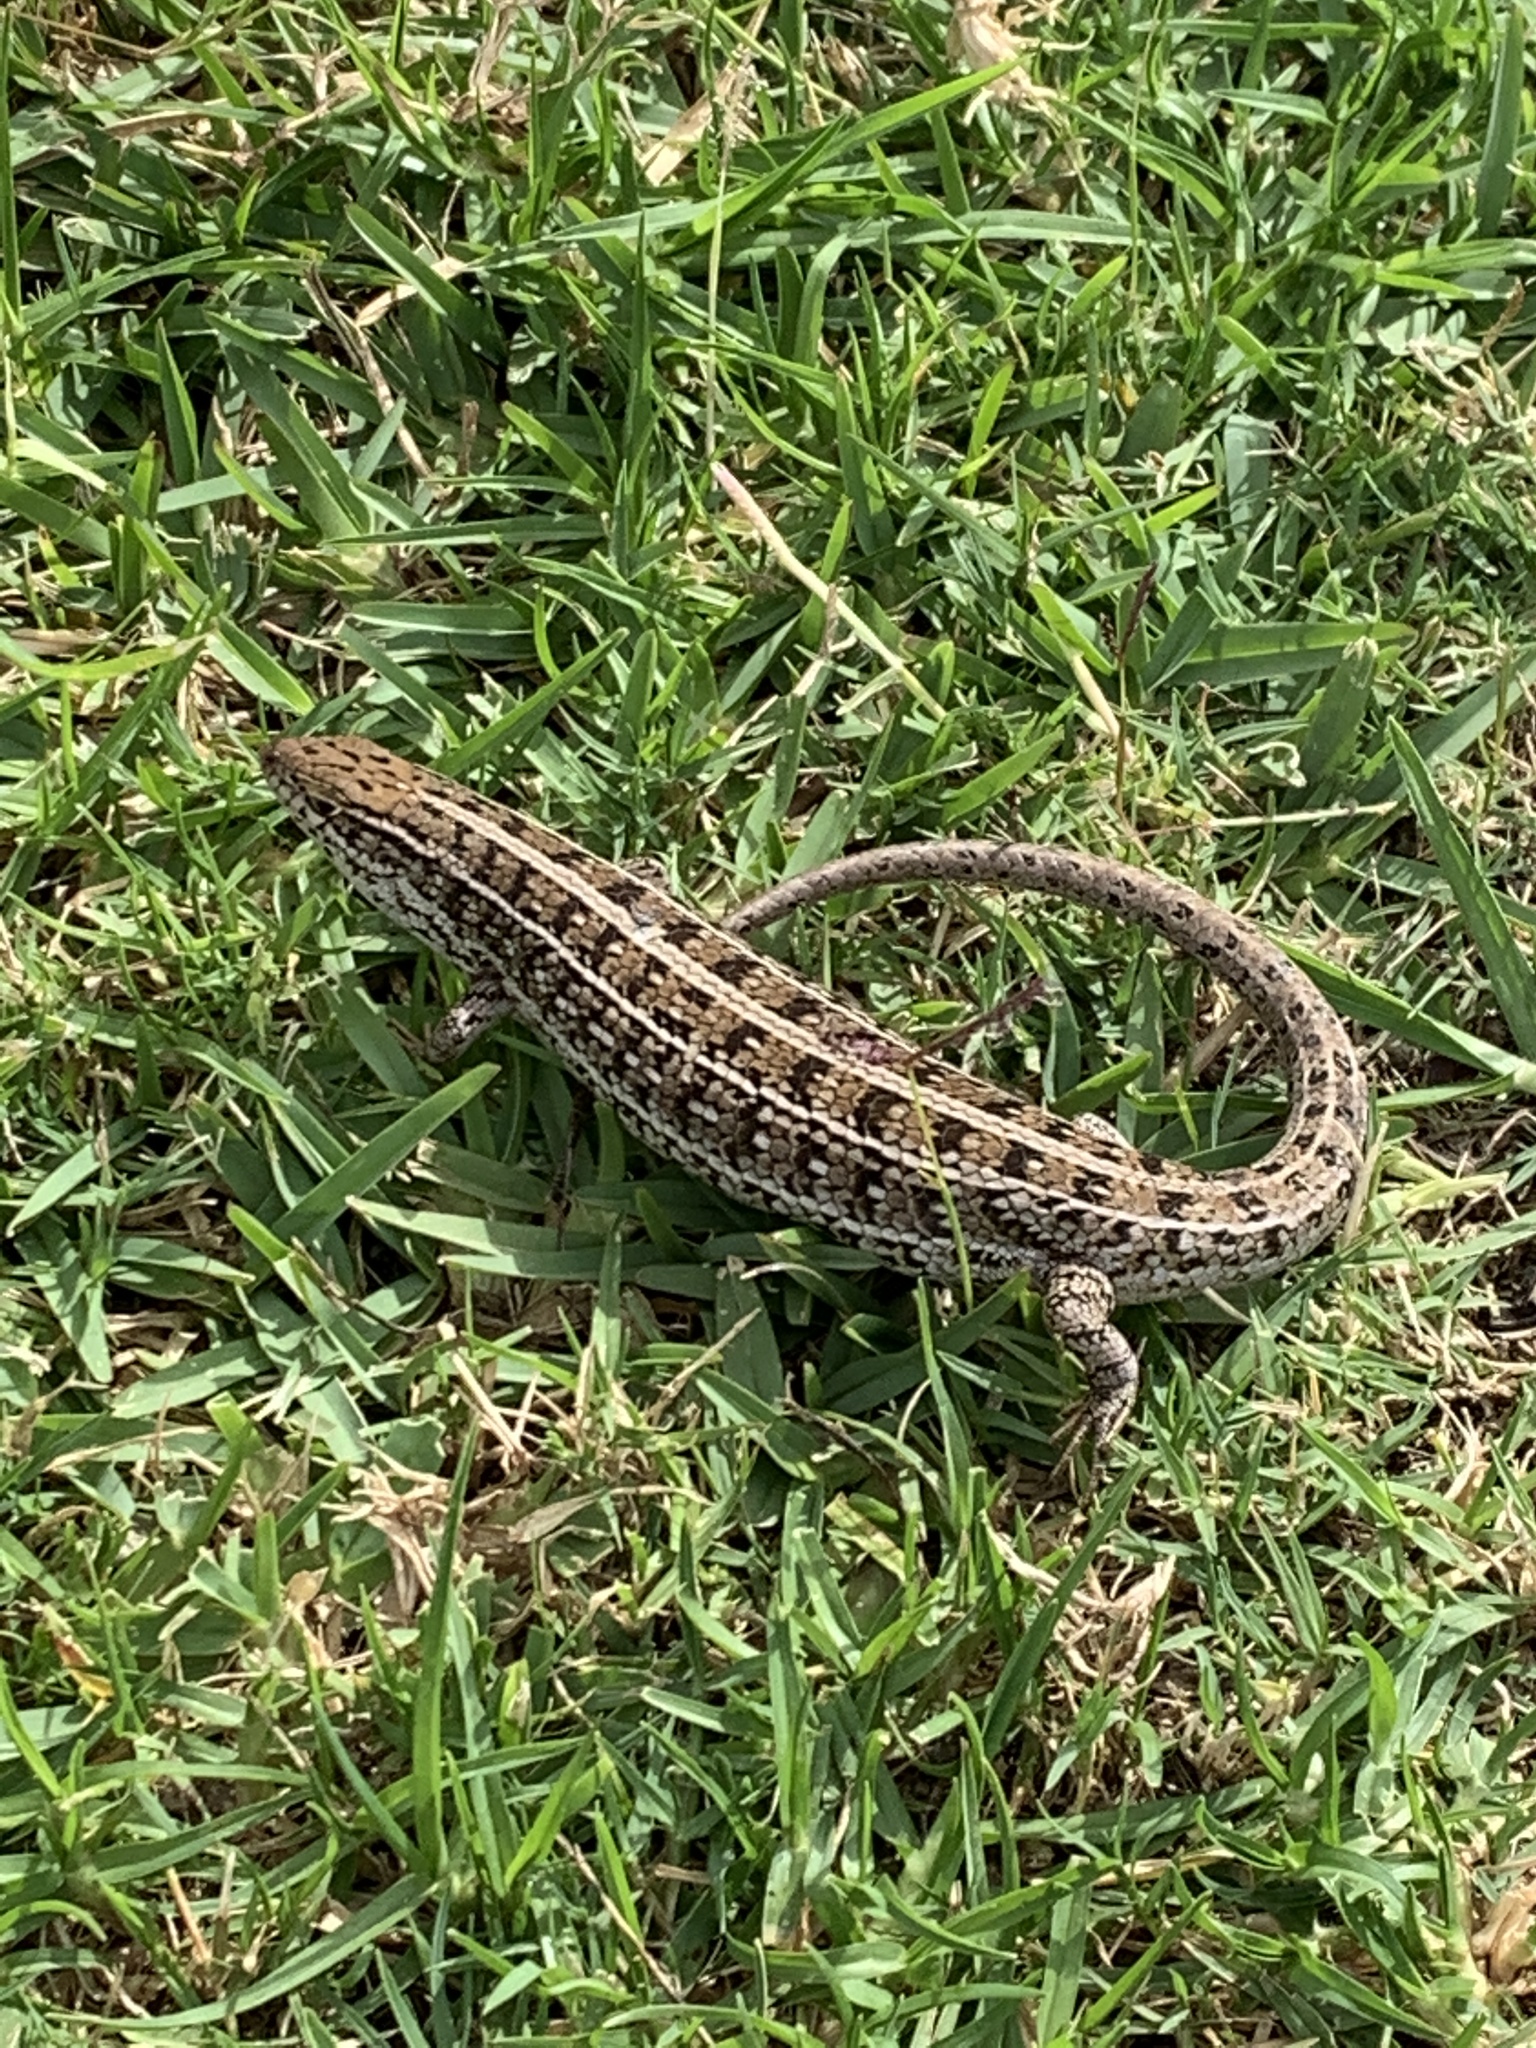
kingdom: Animalia
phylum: Chordata
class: Squamata
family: Scincidae
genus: Trachylepis
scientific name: Trachylepis capensis
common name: Cape skink
